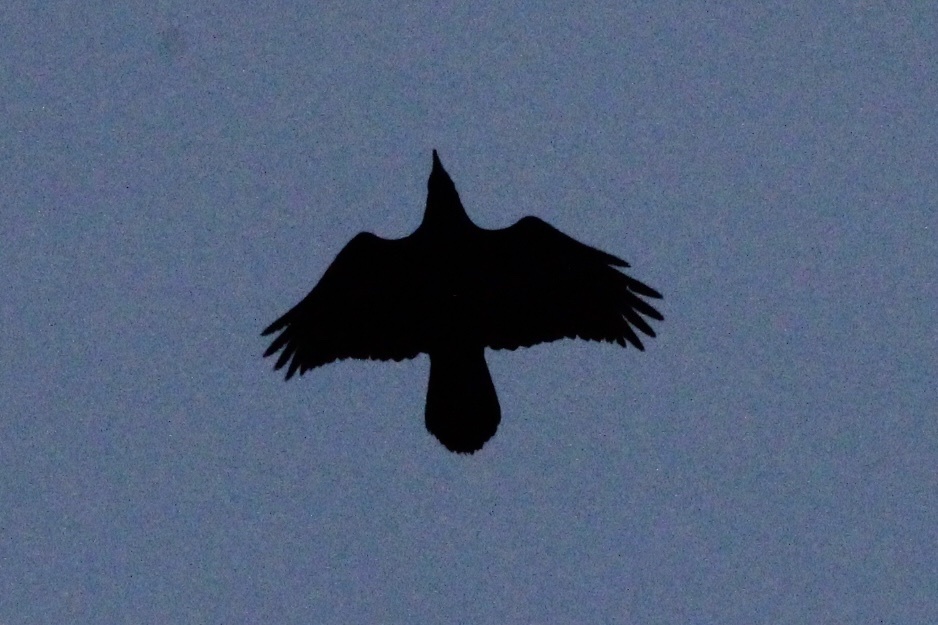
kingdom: Animalia
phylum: Chordata
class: Aves
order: Passeriformes
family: Corvidae
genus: Corvus
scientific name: Corvus corax
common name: Common raven
